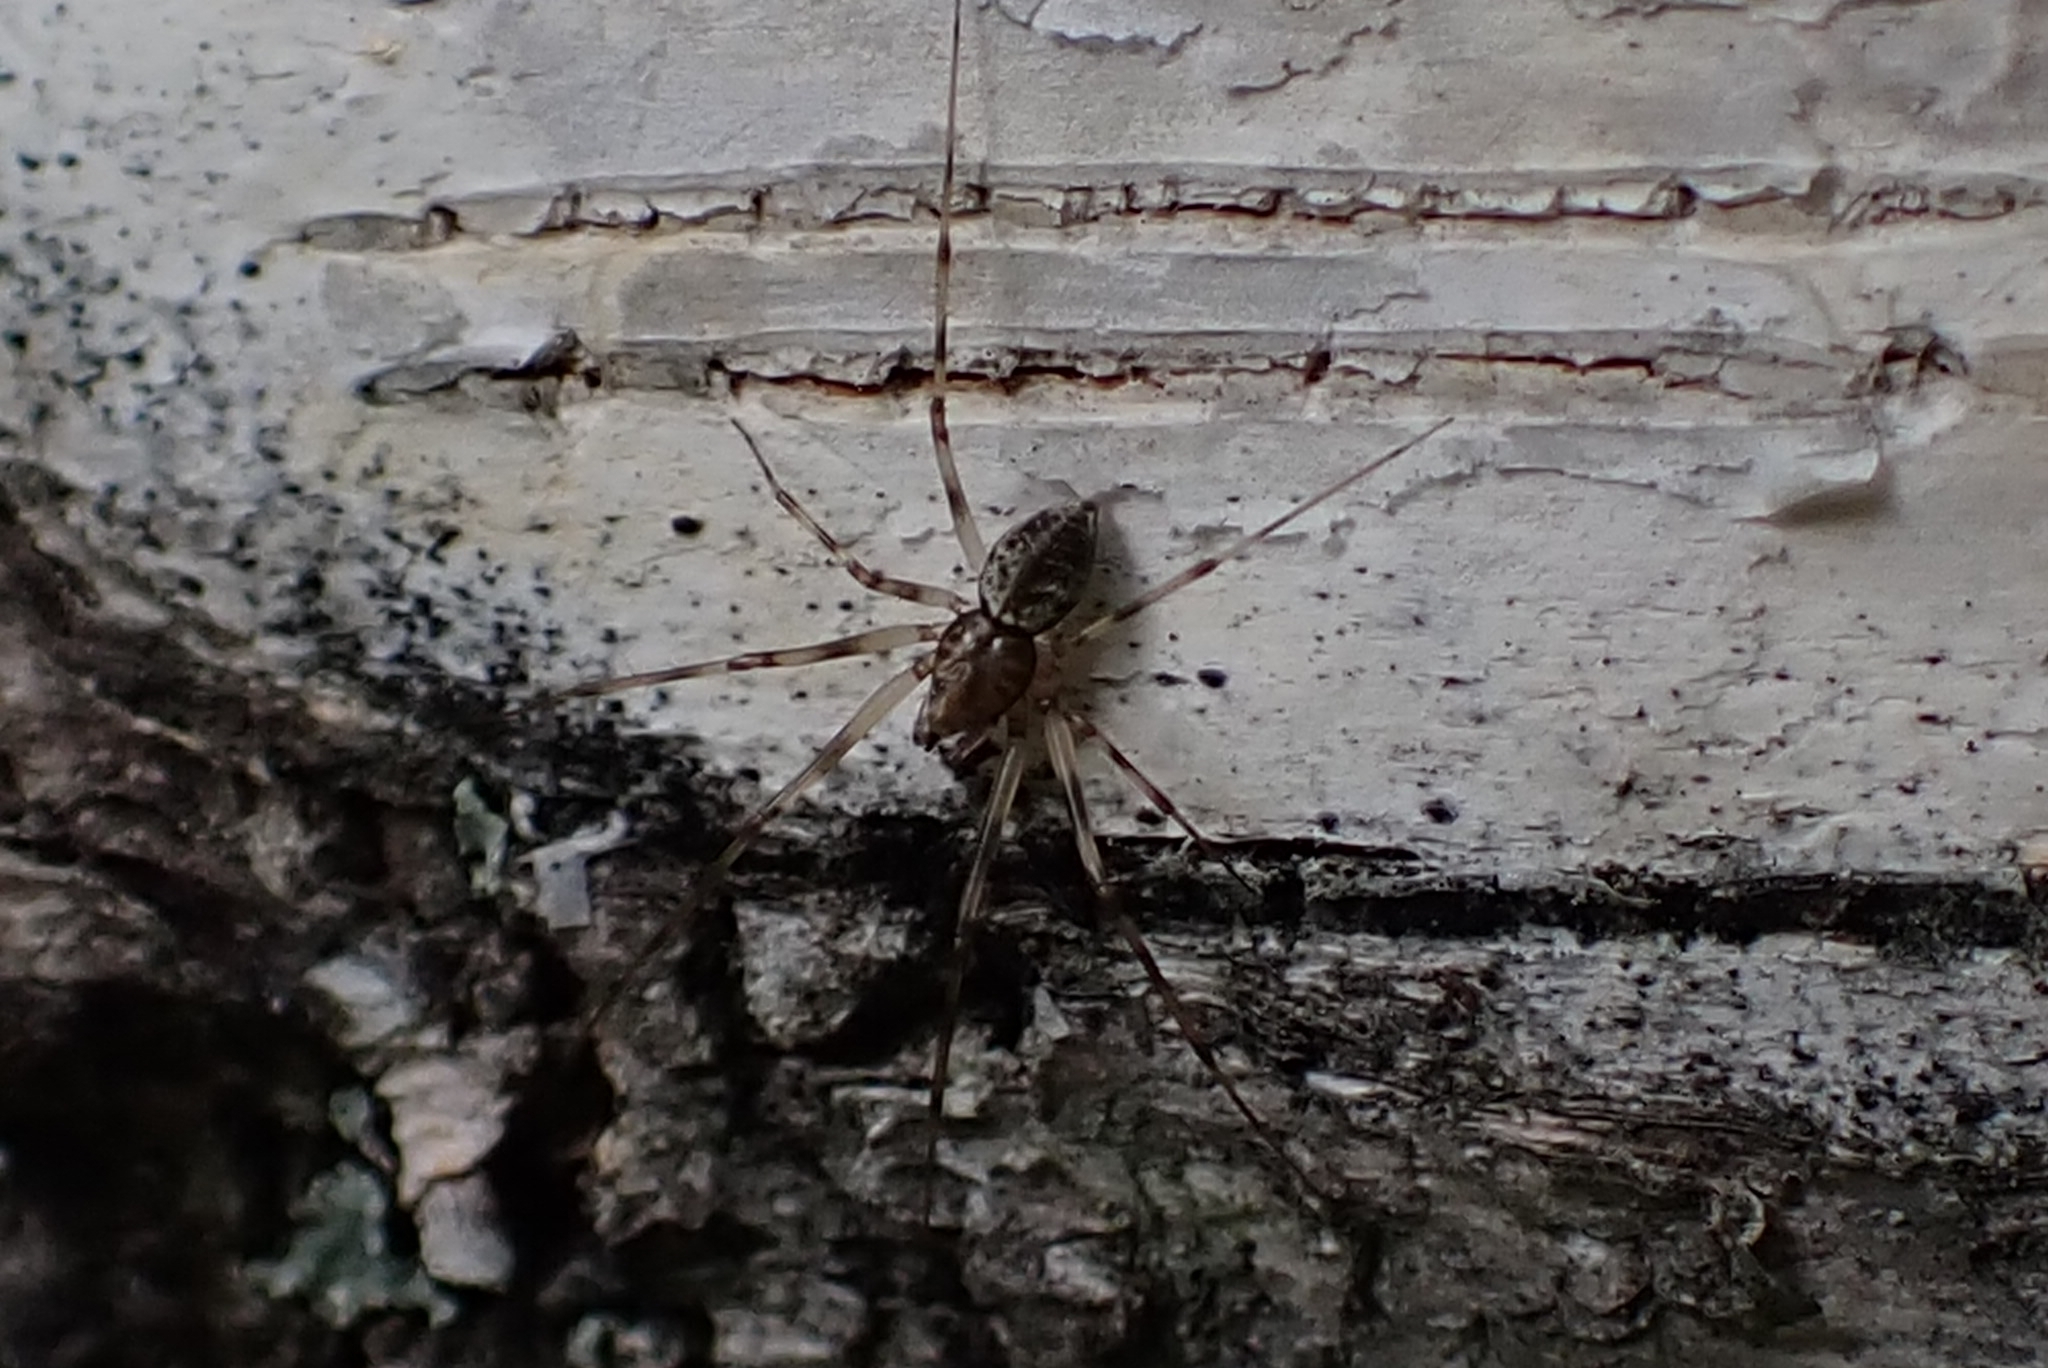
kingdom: Animalia
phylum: Arthropoda
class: Arachnida
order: Araneae
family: Linyphiidae
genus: Drapetisca
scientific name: Drapetisca socialis
